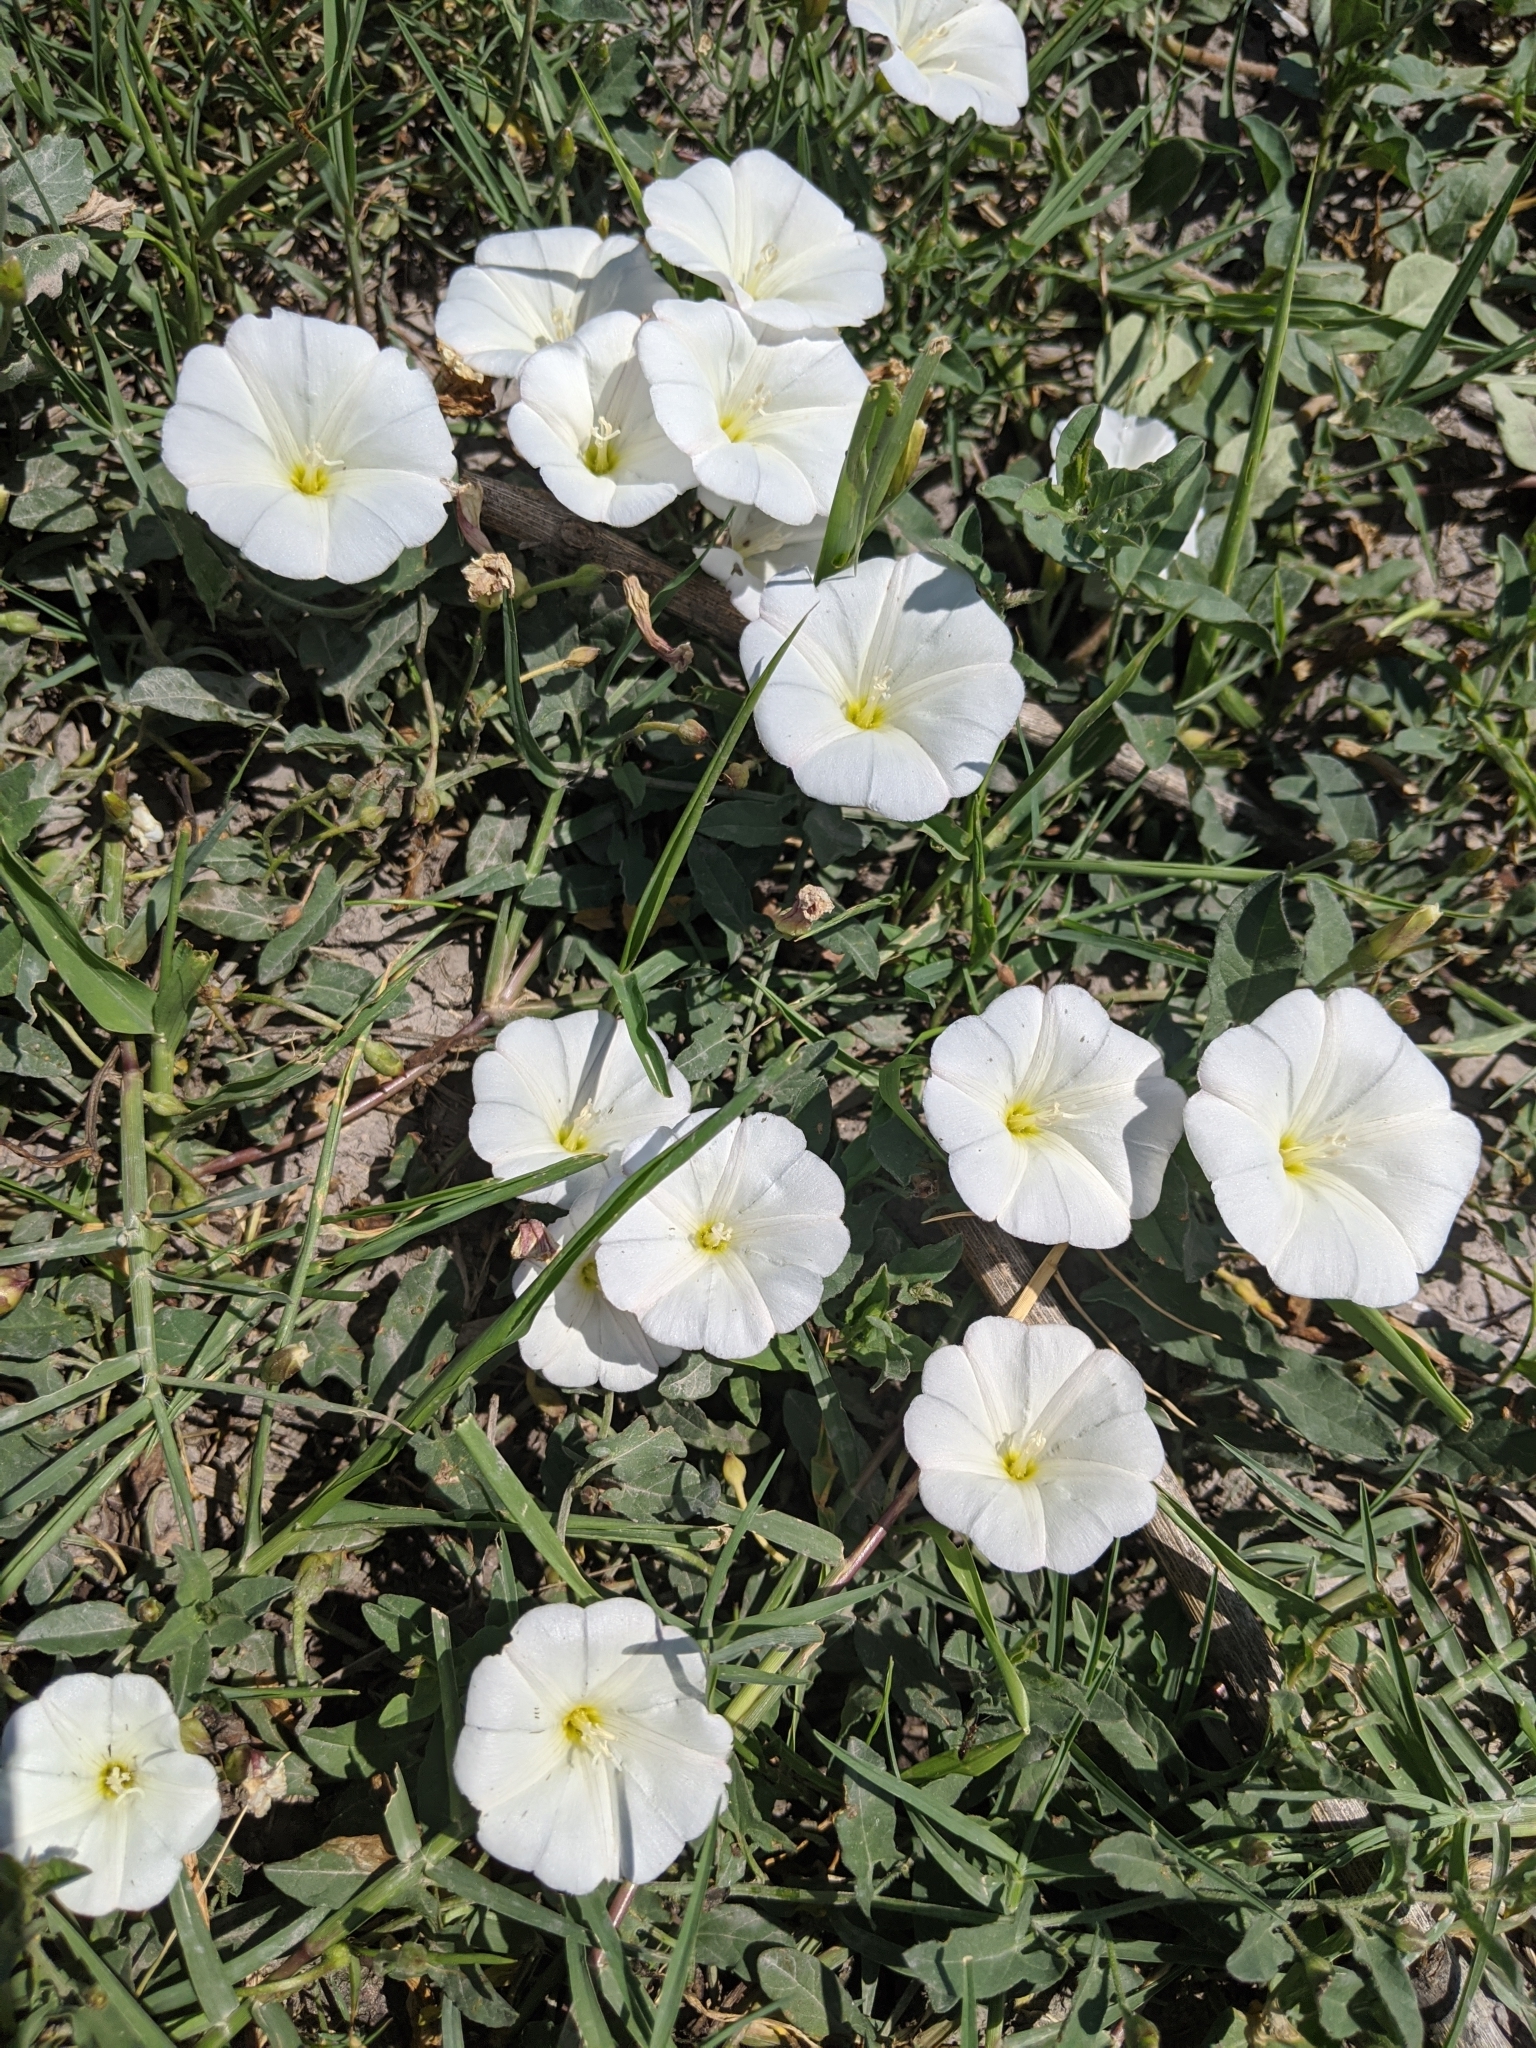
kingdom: Plantae
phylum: Tracheophyta
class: Magnoliopsida
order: Solanales
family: Convolvulaceae
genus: Convolvulus
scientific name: Convolvulus arvensis
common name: Field bindweed
